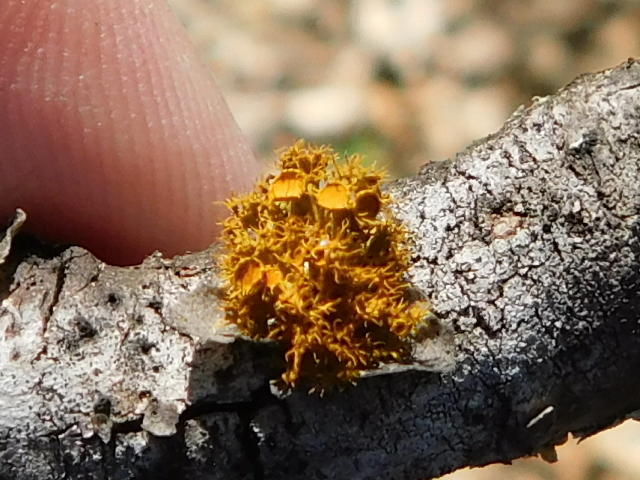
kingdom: Fungi
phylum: Ascomycota
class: Lecanoromycetes
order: Teloschistales
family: Teloschistaceae
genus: Niorma
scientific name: Niorma chrysophthalma
